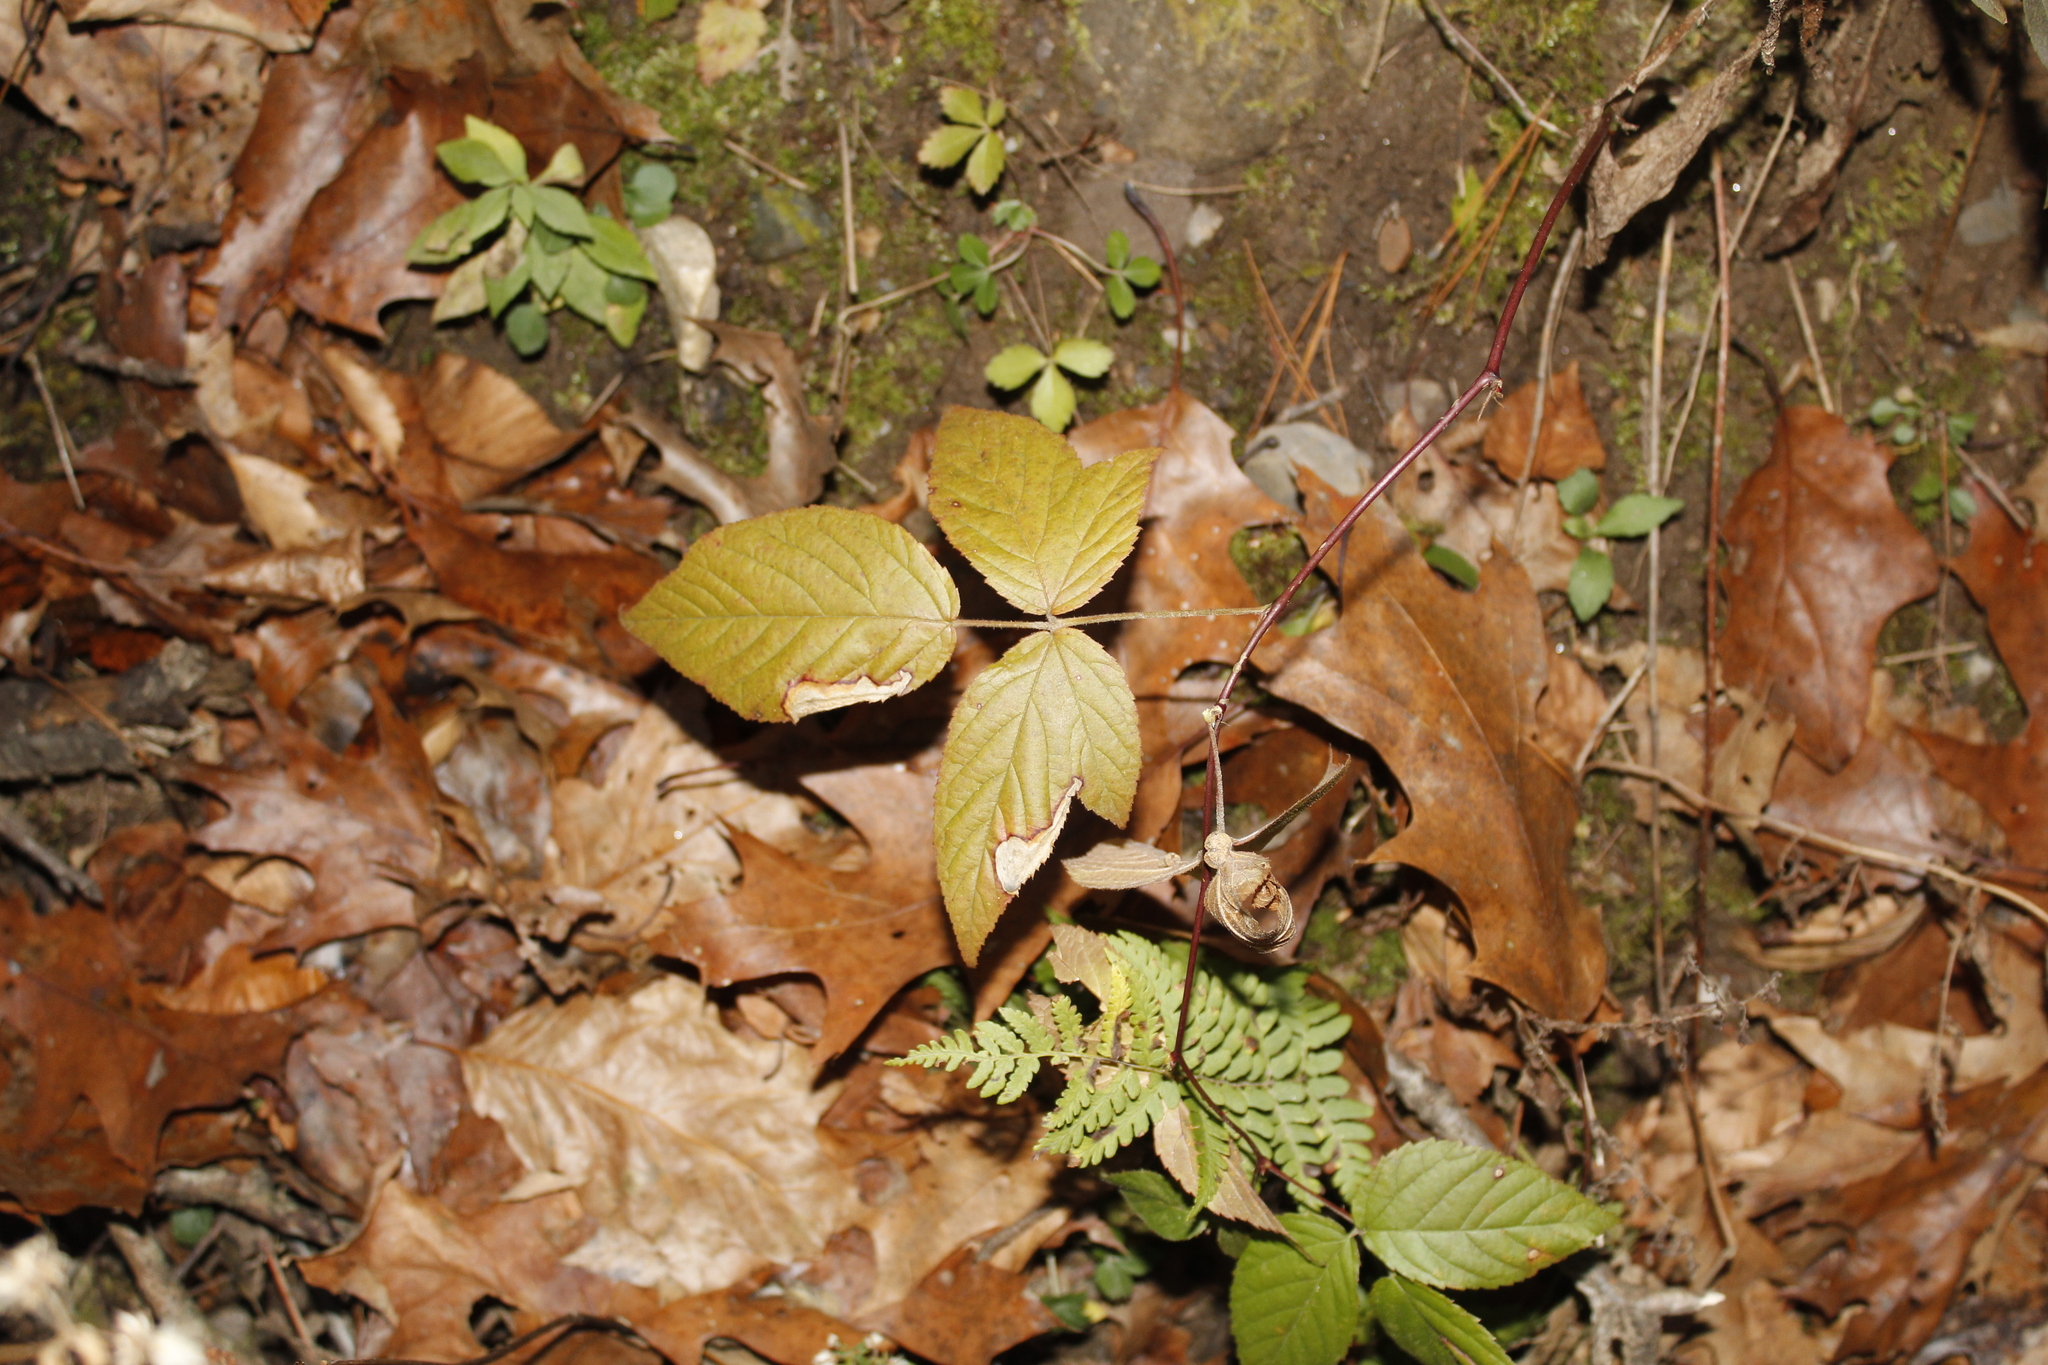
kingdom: Plantae
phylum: Tracheophyta
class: Magnoliopsida
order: Rosales
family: Rosaceae
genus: Rubus
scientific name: Rubus
